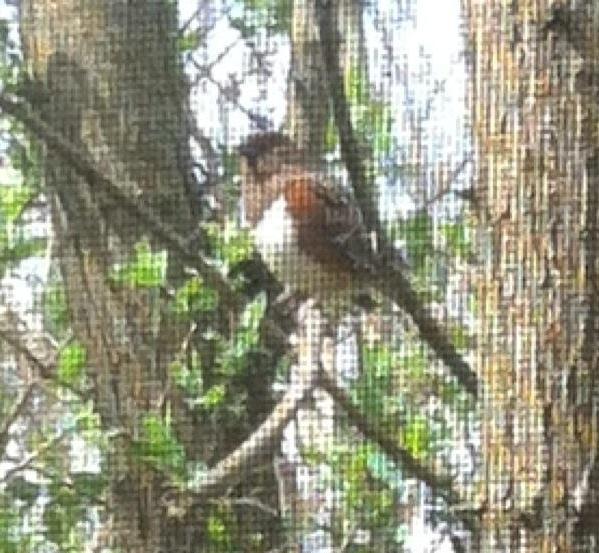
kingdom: Animalia
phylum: Chordata
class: Aves
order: Passeriformes
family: Passerellidae
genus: Pipilo
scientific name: Pipilo erythrophthalmus
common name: Eastern towhee
